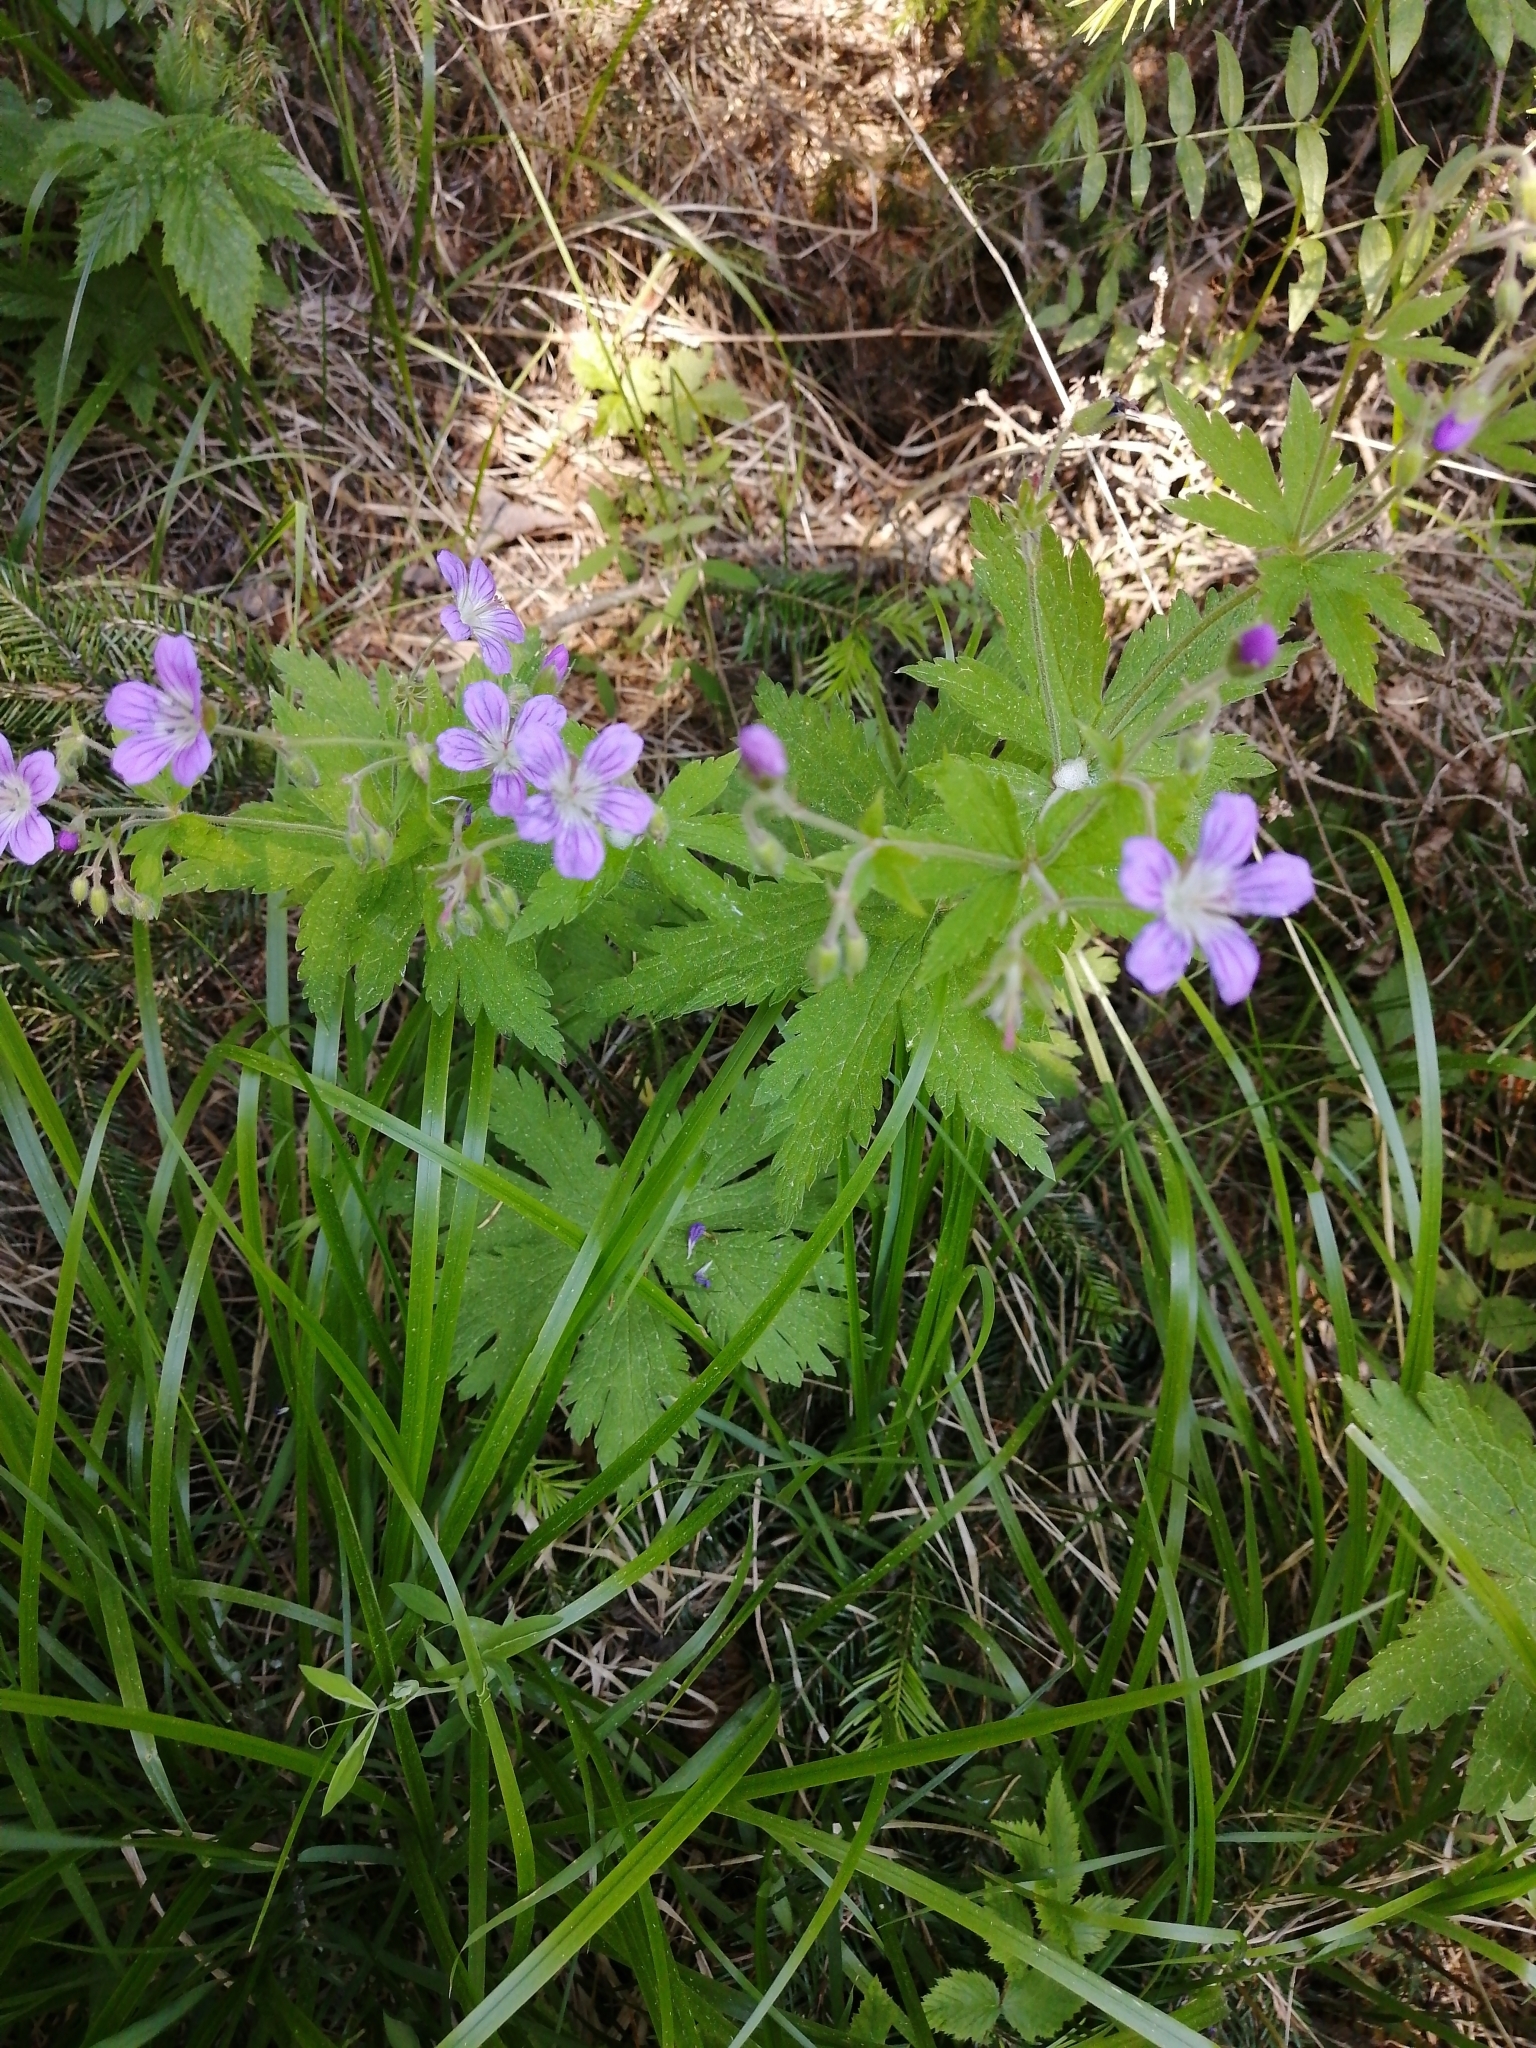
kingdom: Plantae
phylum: Tracheophyta
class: Magnoliopsida
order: Geraniales
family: Geraniaceae
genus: Geranium
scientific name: Geranium sylvaticum
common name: Wood crane's-bill
